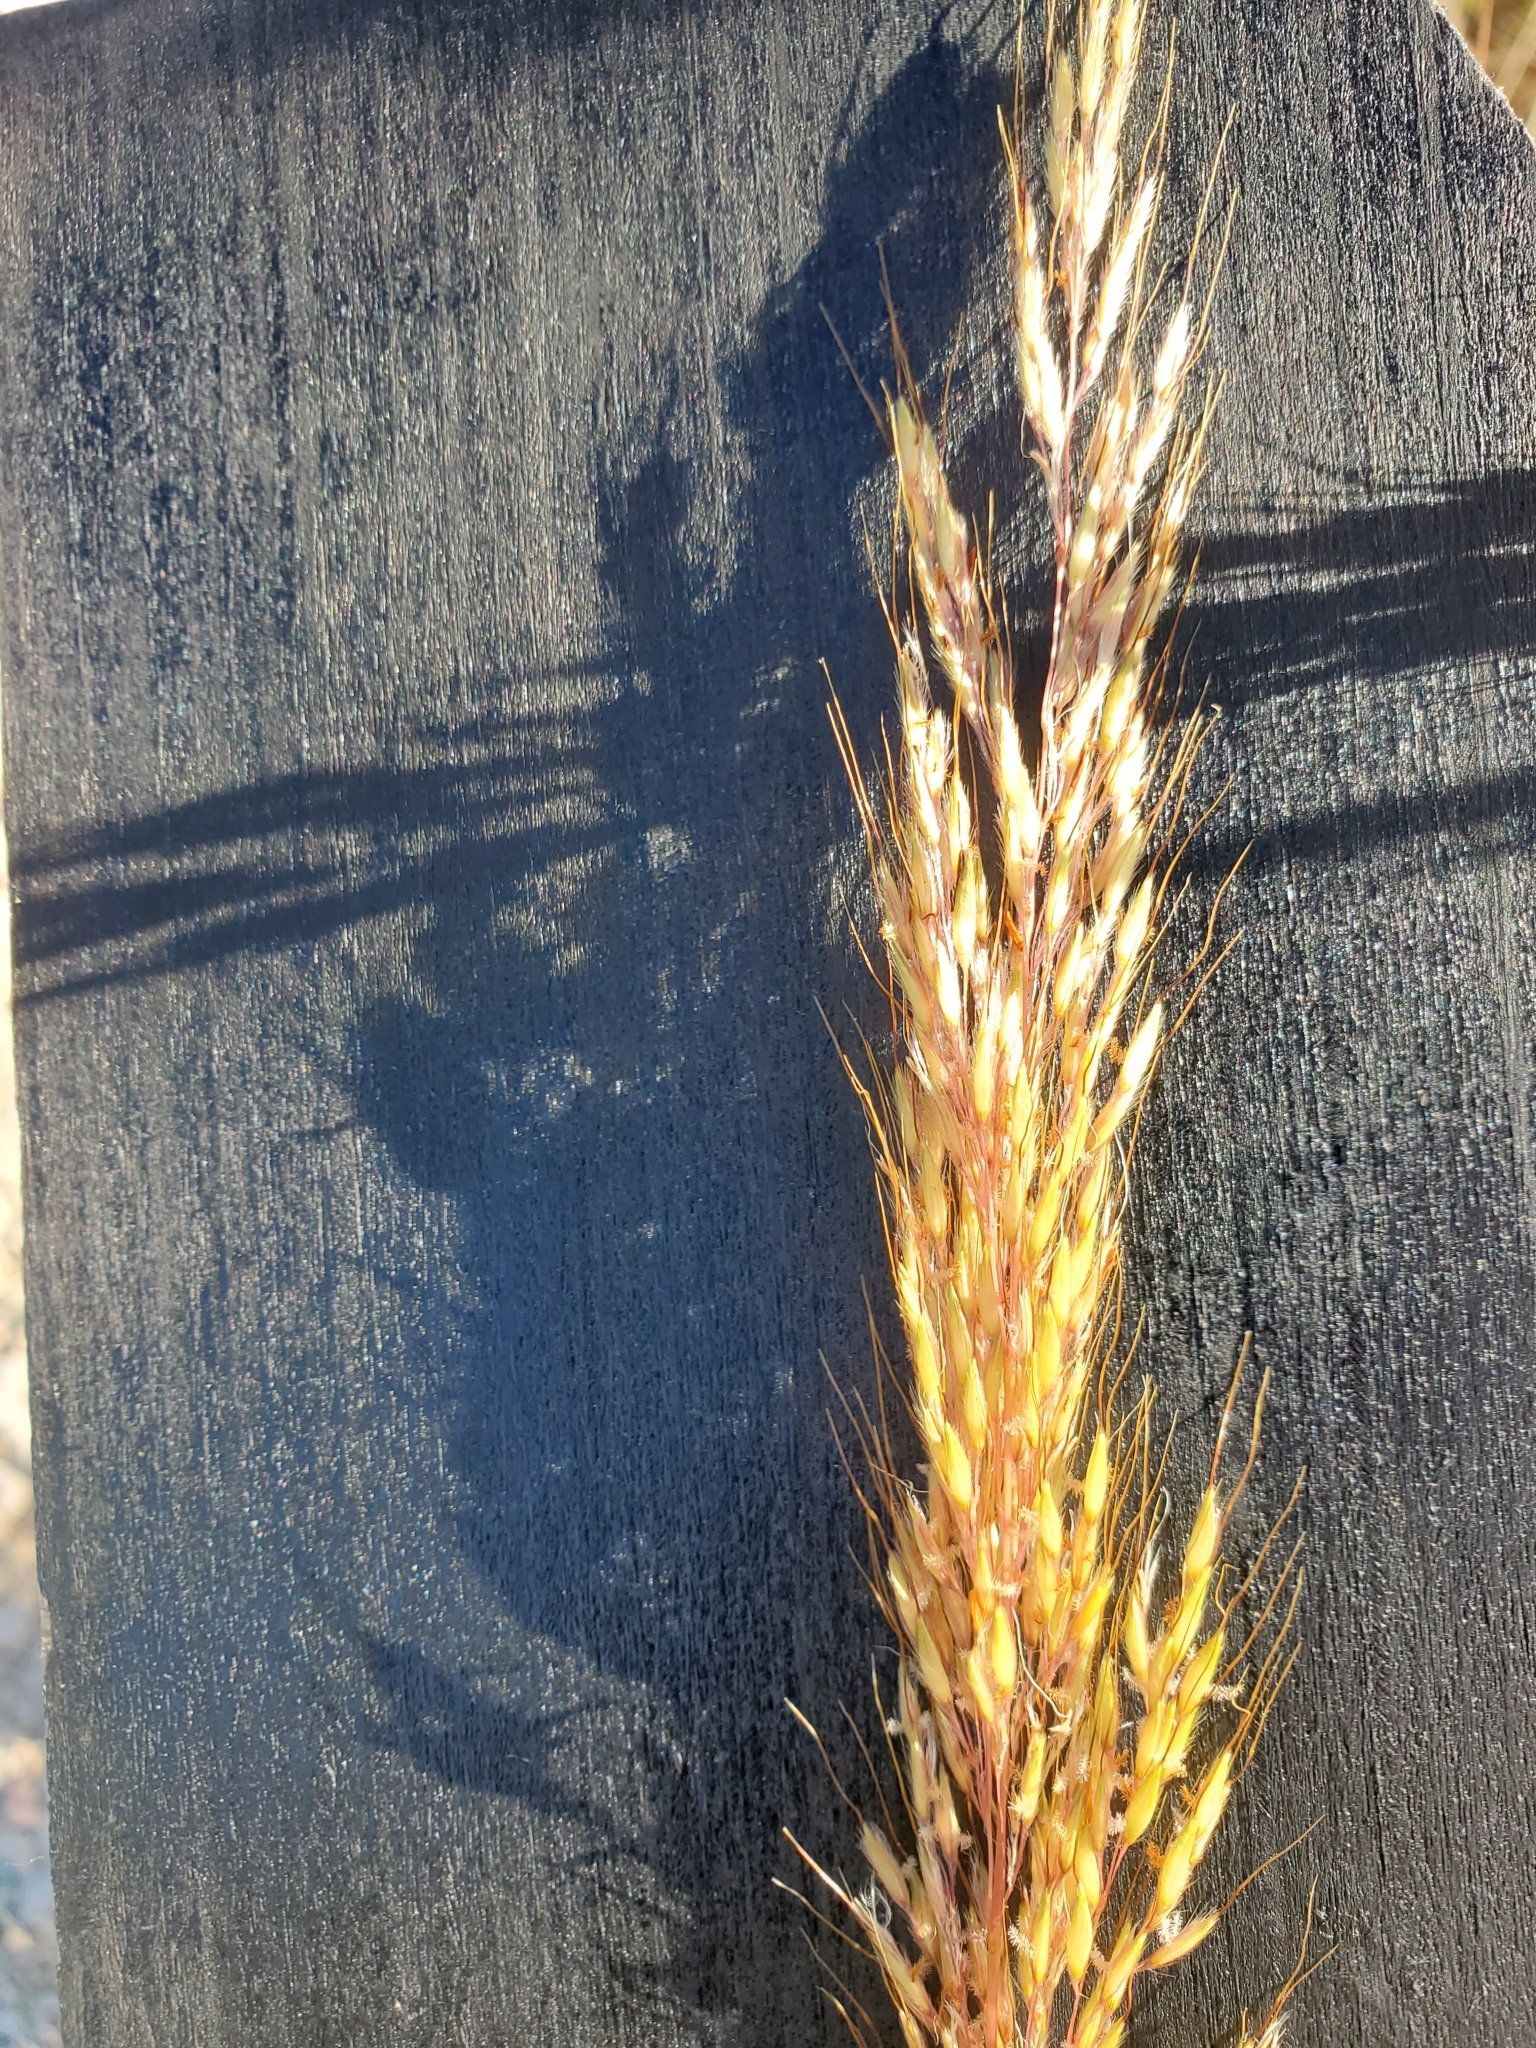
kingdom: Plantae
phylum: Tracheophyta
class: Liliopsida
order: Poales
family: Poaceae
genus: Sorghastrum
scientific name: Sorghastrum nutans
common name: Indian grass
